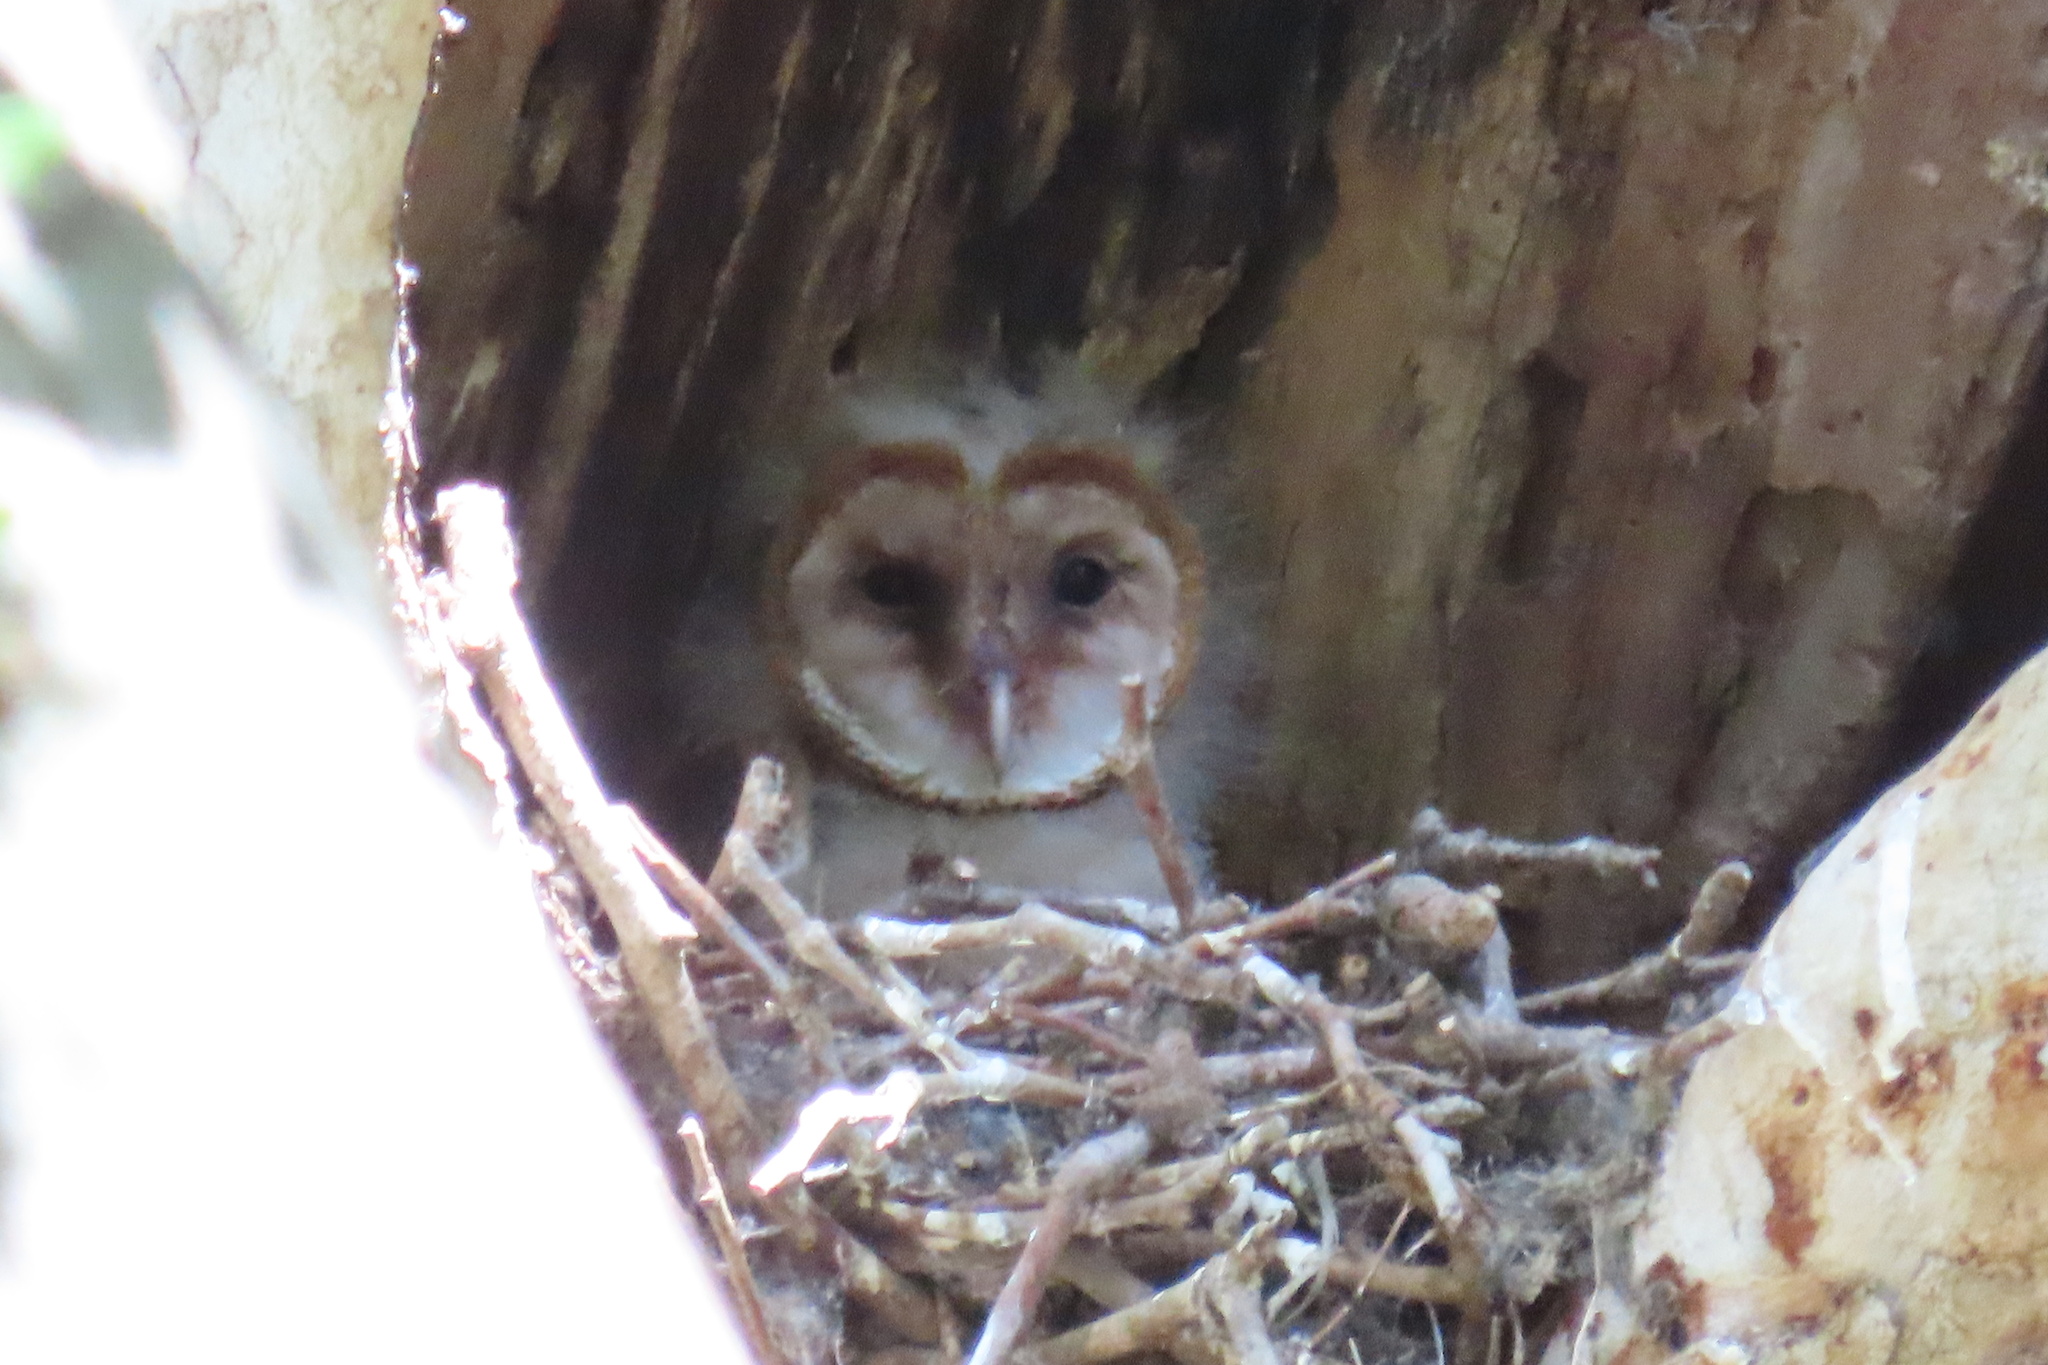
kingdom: Animalia
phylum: Chordata
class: Aves
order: Strigiformes
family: Tytonidae
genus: Tyto
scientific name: Tyto alba
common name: Barn owl
